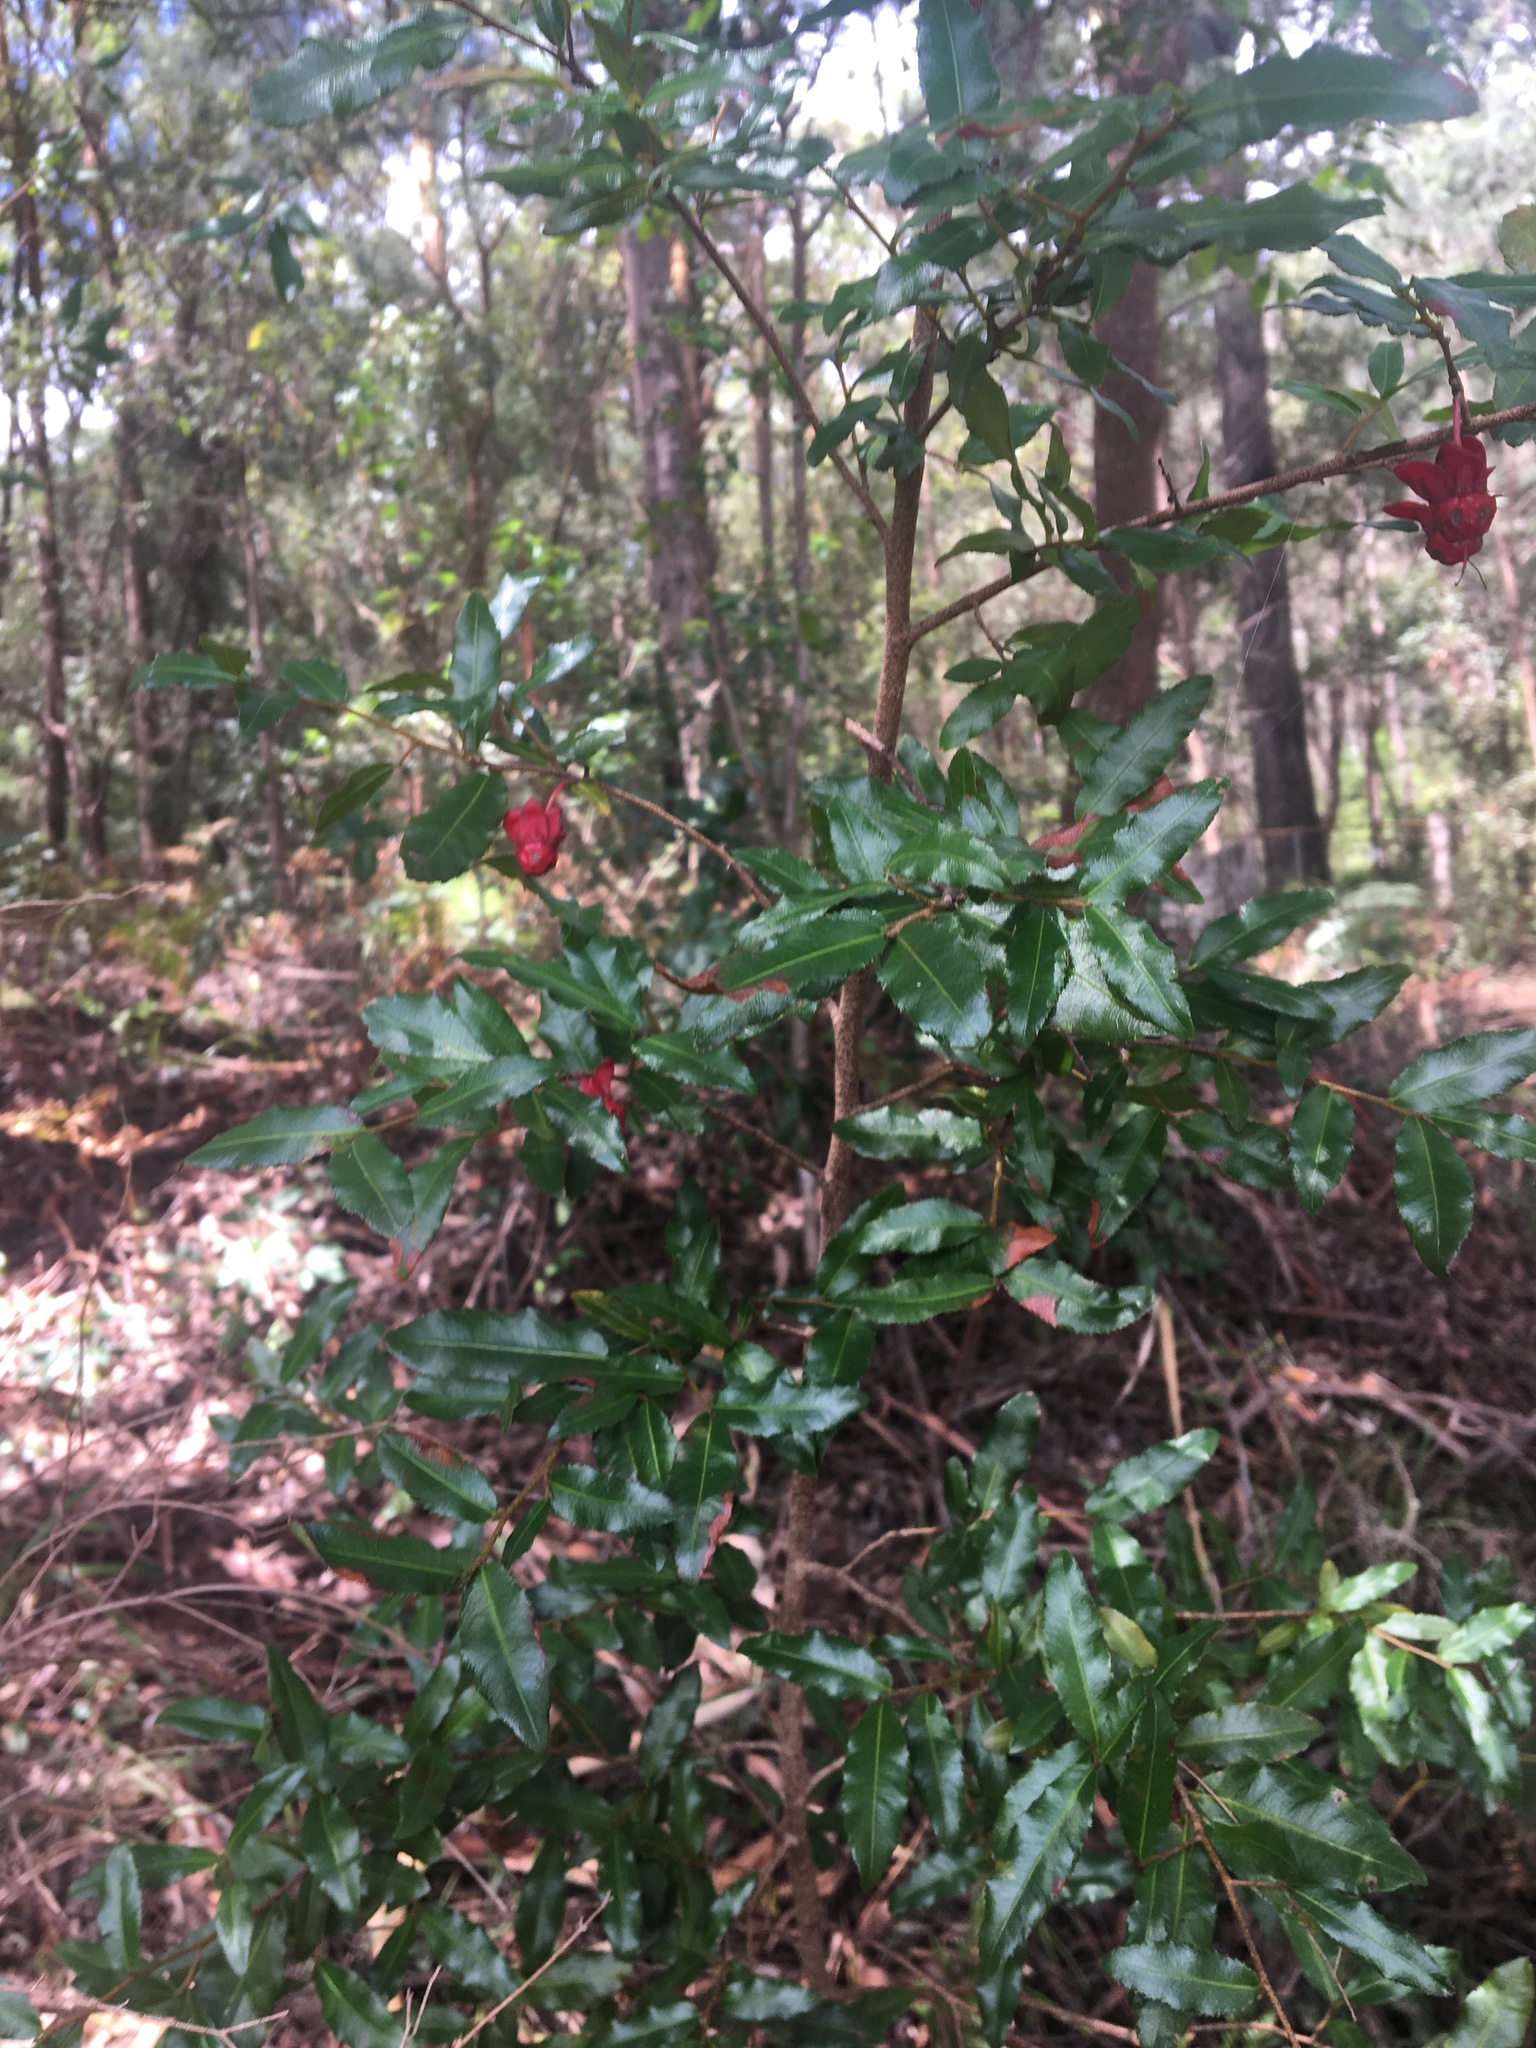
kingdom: Plantae
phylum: Tracheophyta
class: Magnoliopsida
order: Malpighiales
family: Ochnaceae
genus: Ochna
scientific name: Ochna serrulata
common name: Mickey mouse plant
